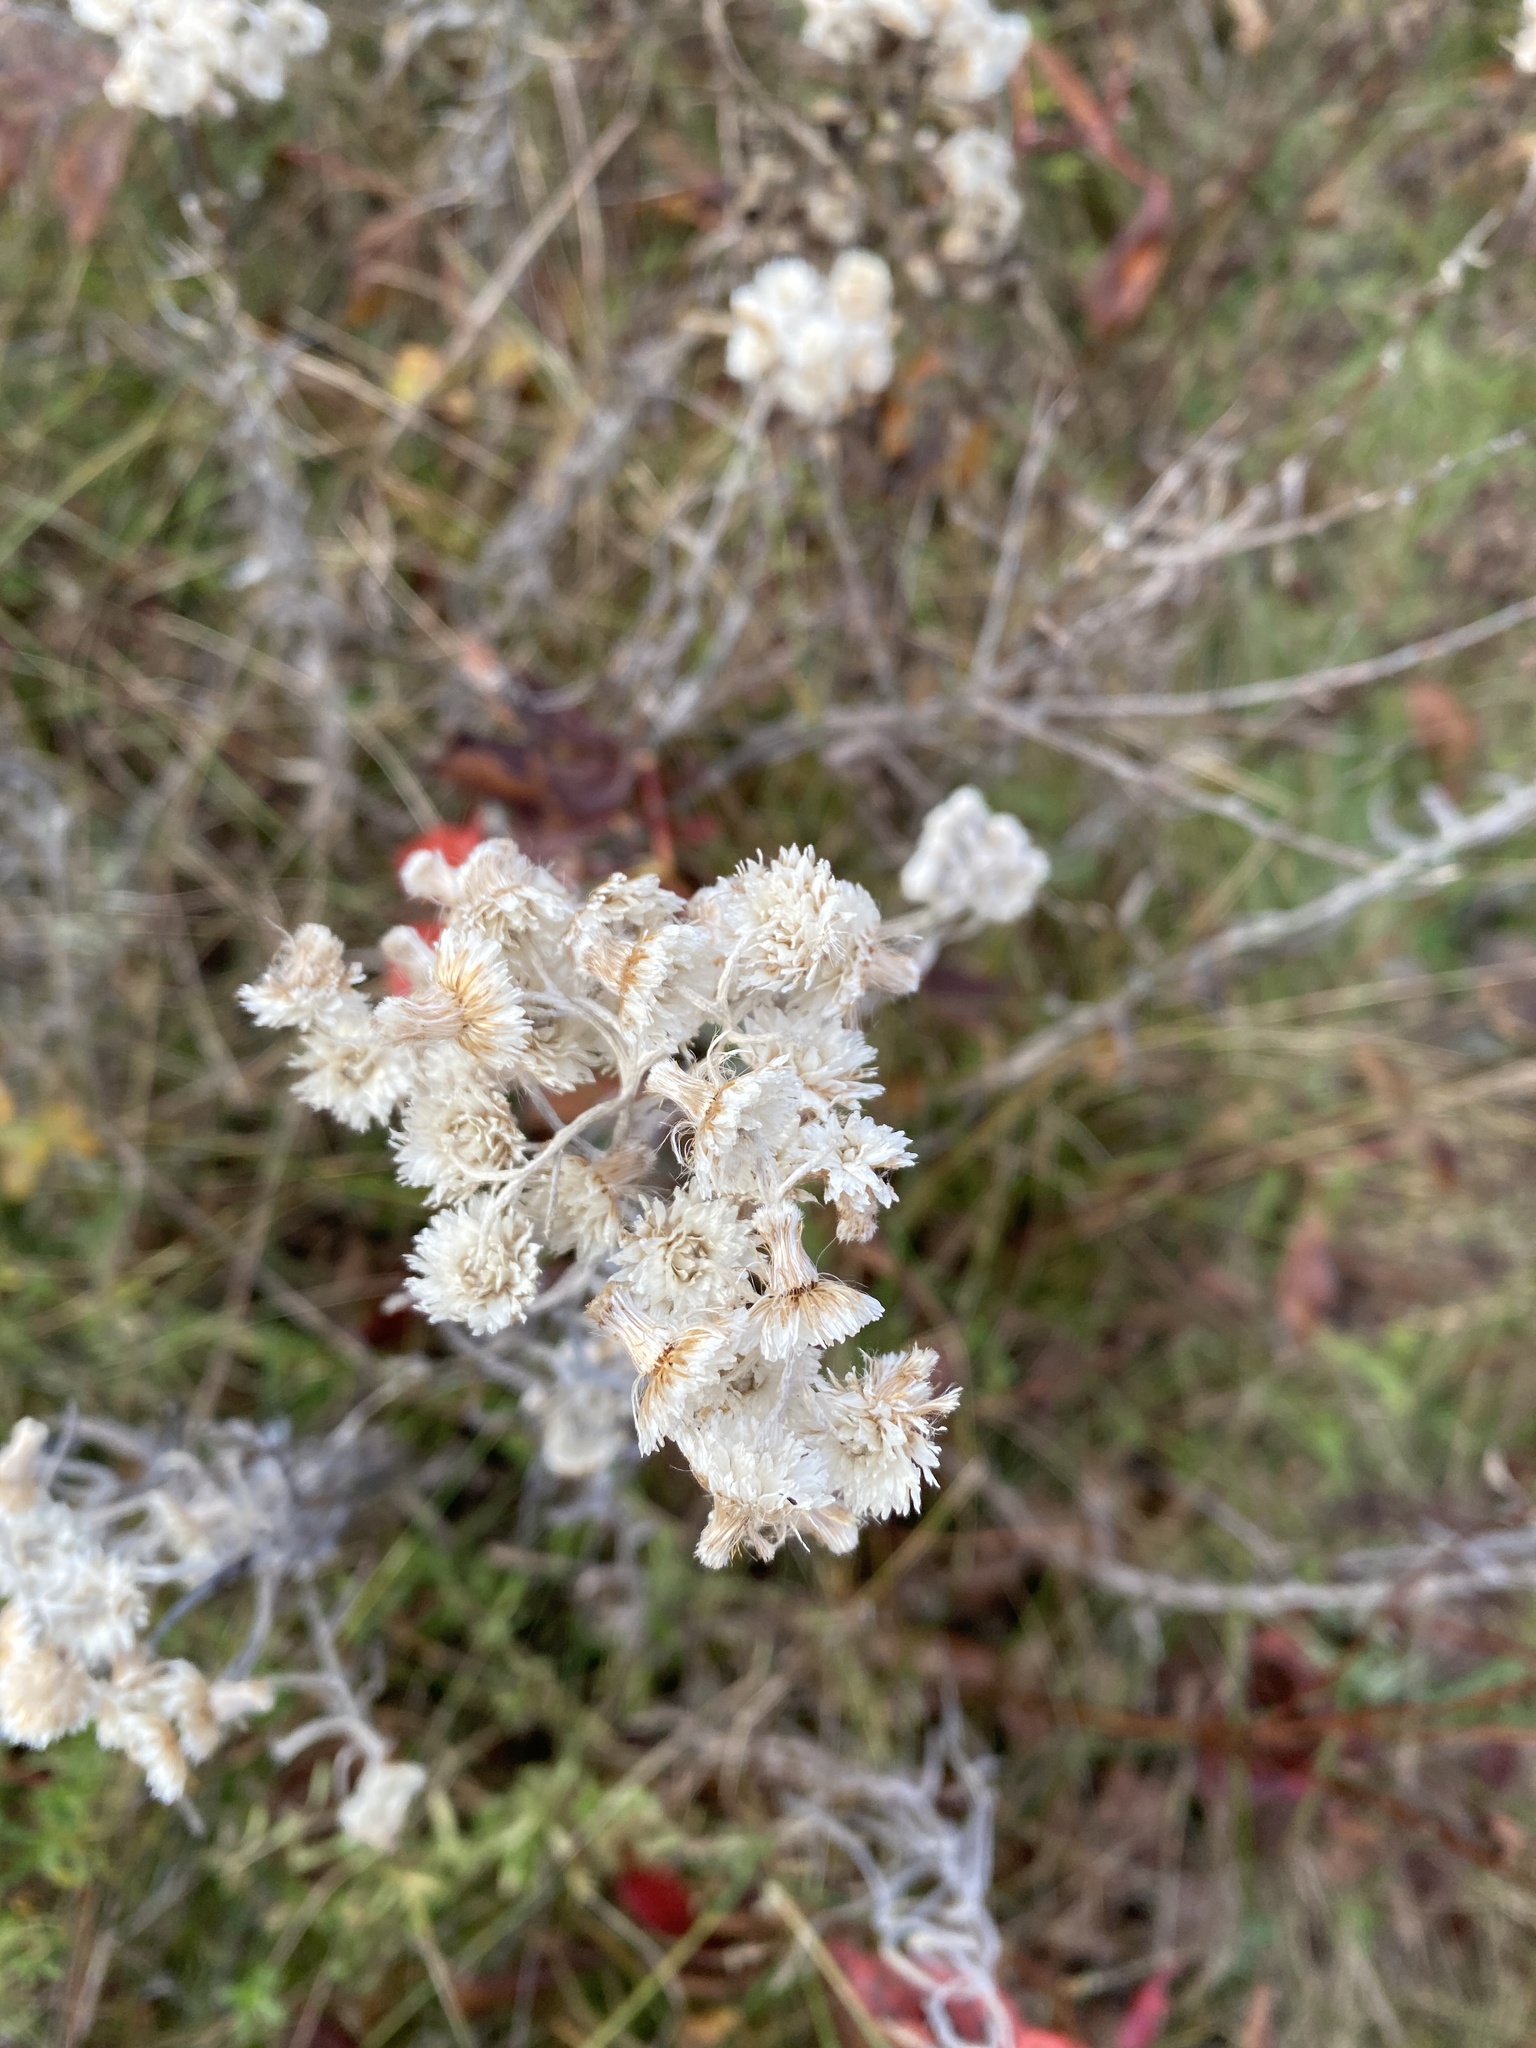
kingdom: Plantae
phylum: Tracheophyta
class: Magnoliopsida
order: Asterales
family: Asteraceae
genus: Anaphalis
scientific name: Anaphalis margaritacea
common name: Pearly everlasting
